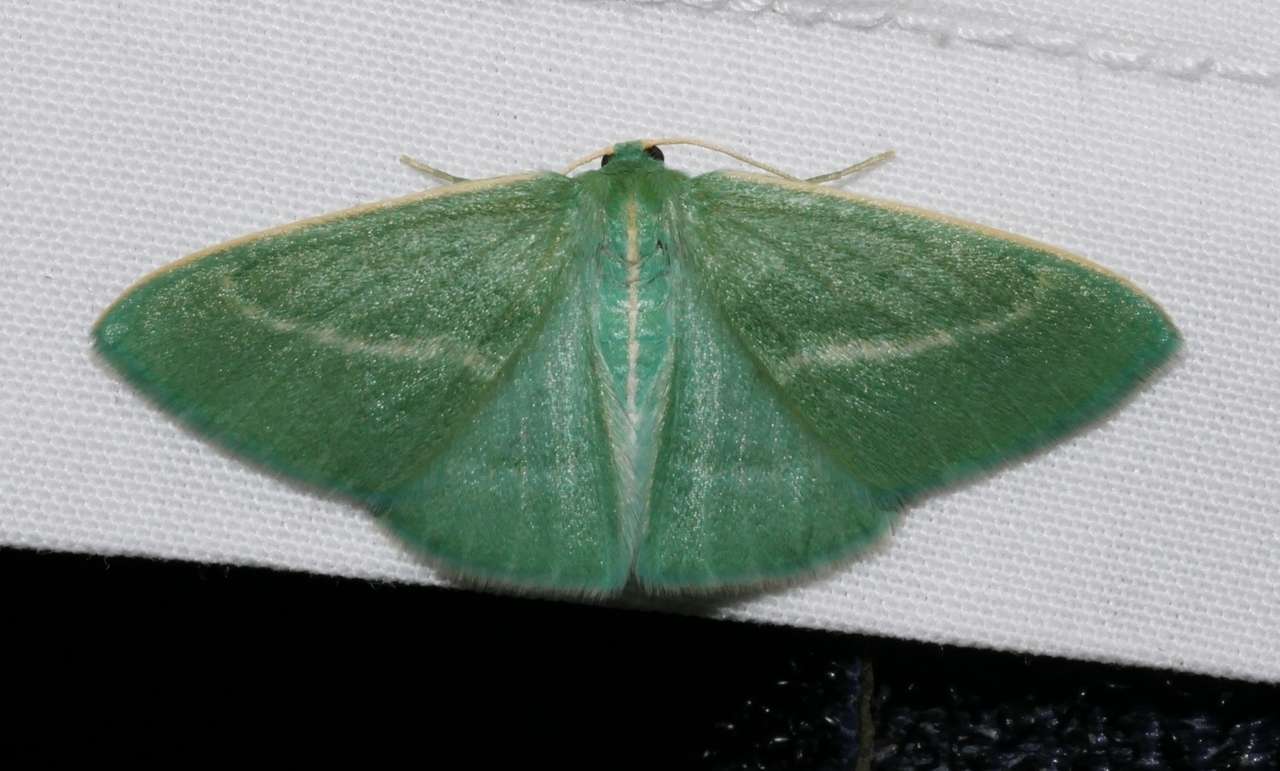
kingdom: Animalia
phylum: Arthropoda
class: Insecta
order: Lepidoptera
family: Geometridae
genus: Chlorocoma
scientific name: Chlorocoma stereota
